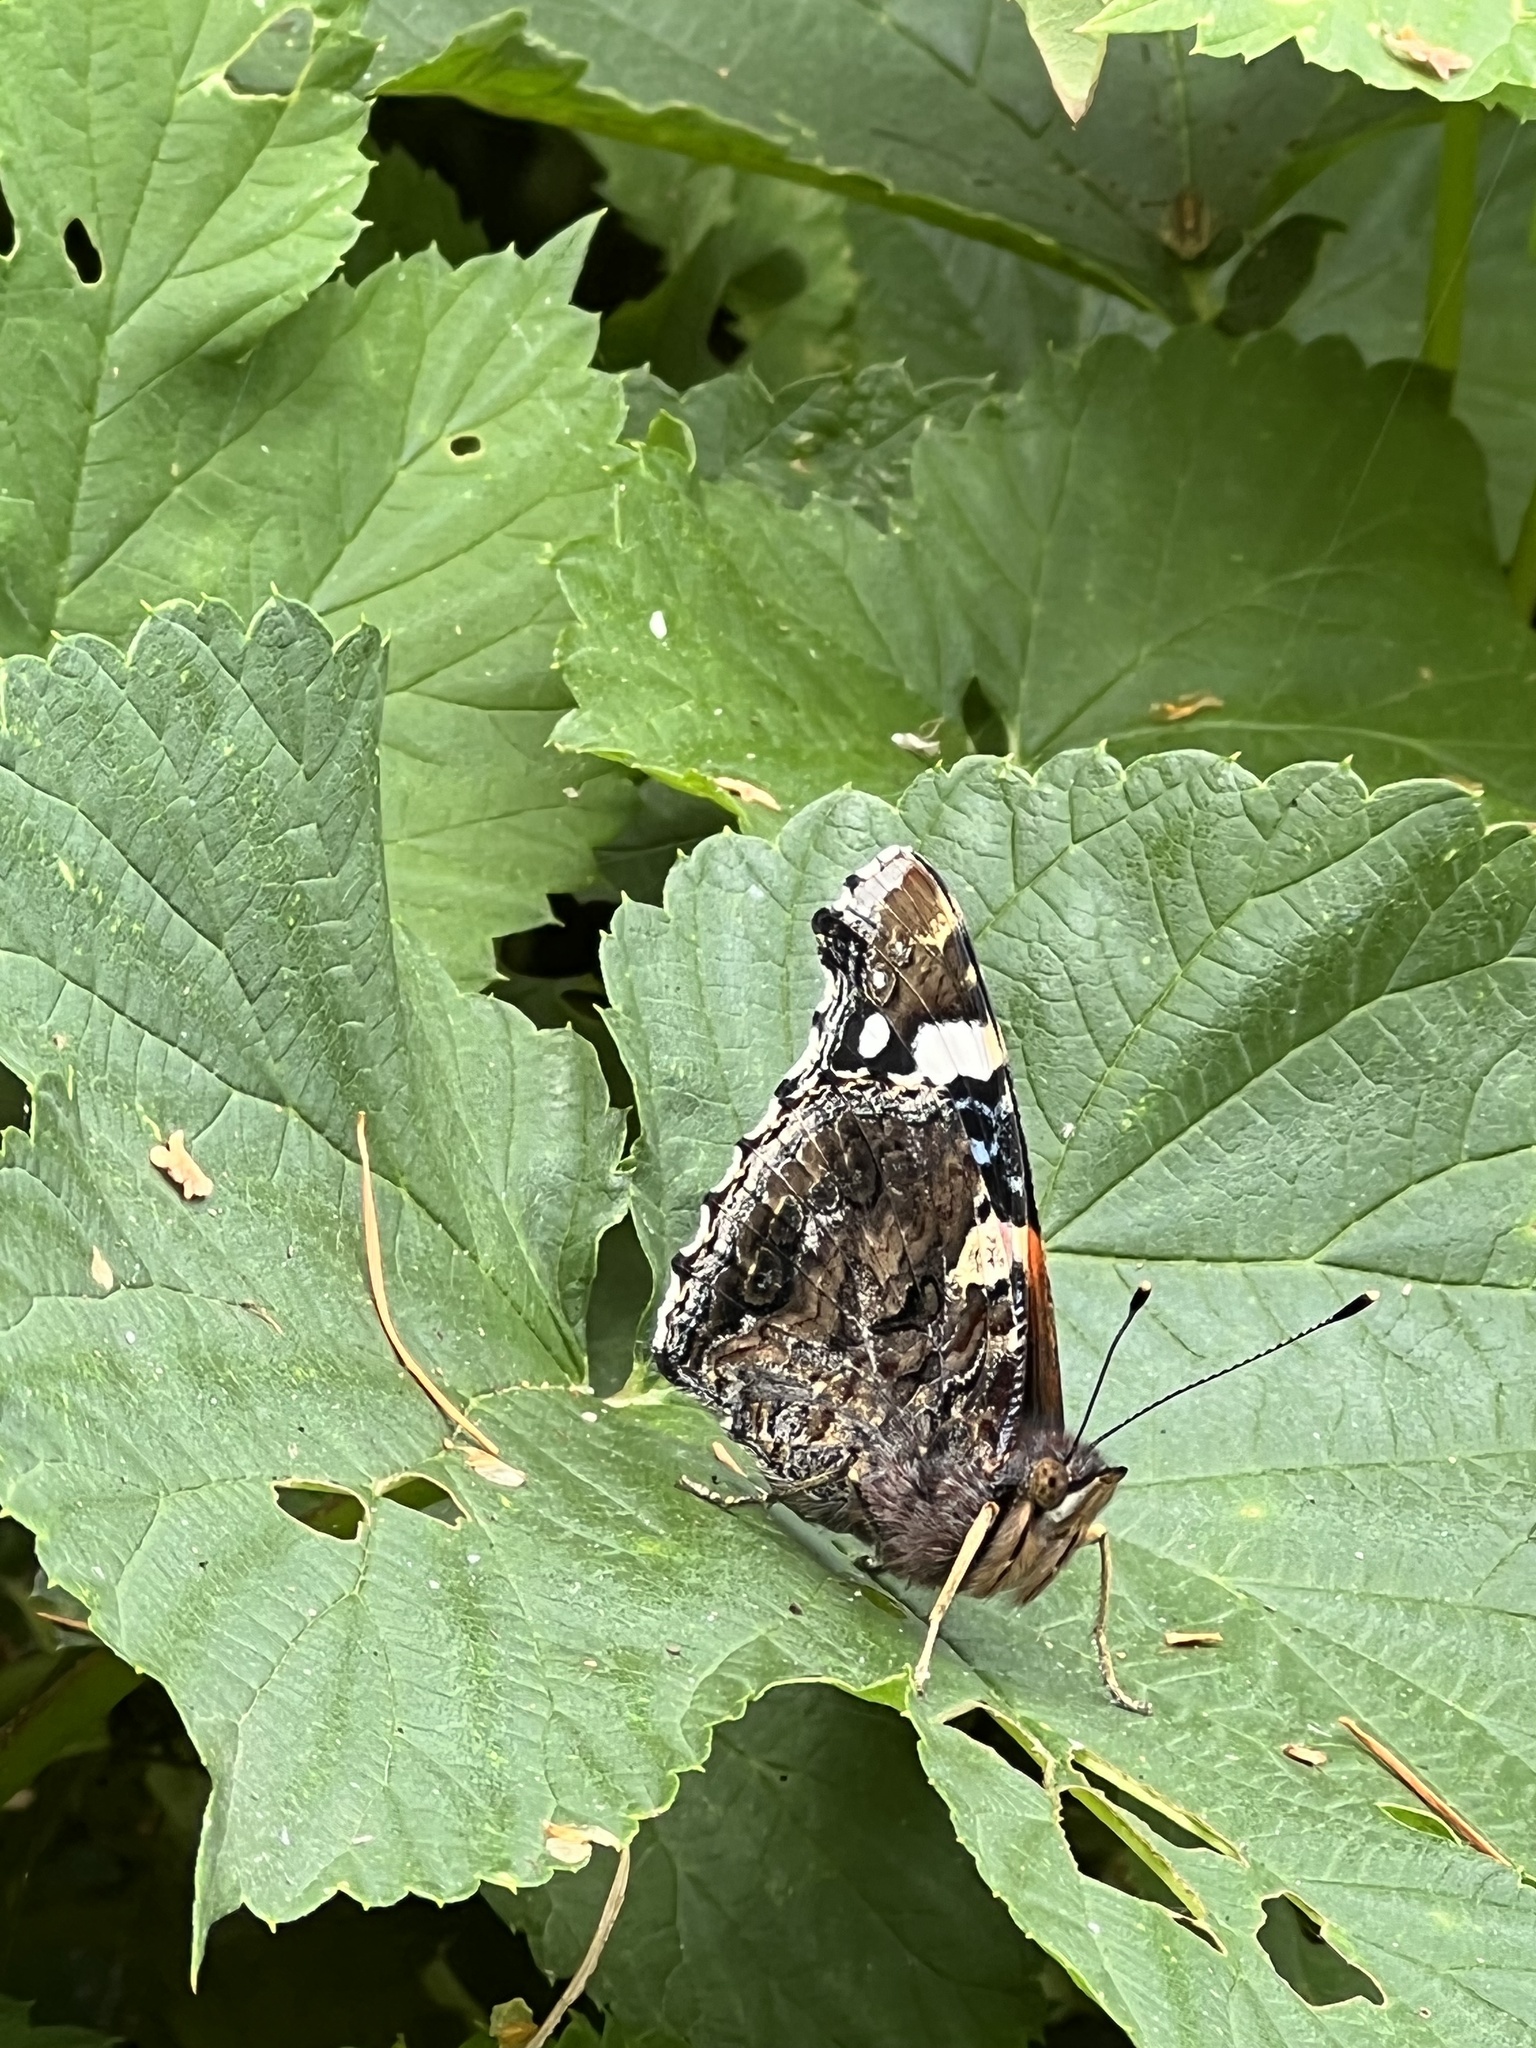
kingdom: Animalia
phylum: Arthropoda
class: Insecta
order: Lepidoptera
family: Nymphalidae
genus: Vanessa
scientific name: Vanessa atalanta
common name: Red admiral
